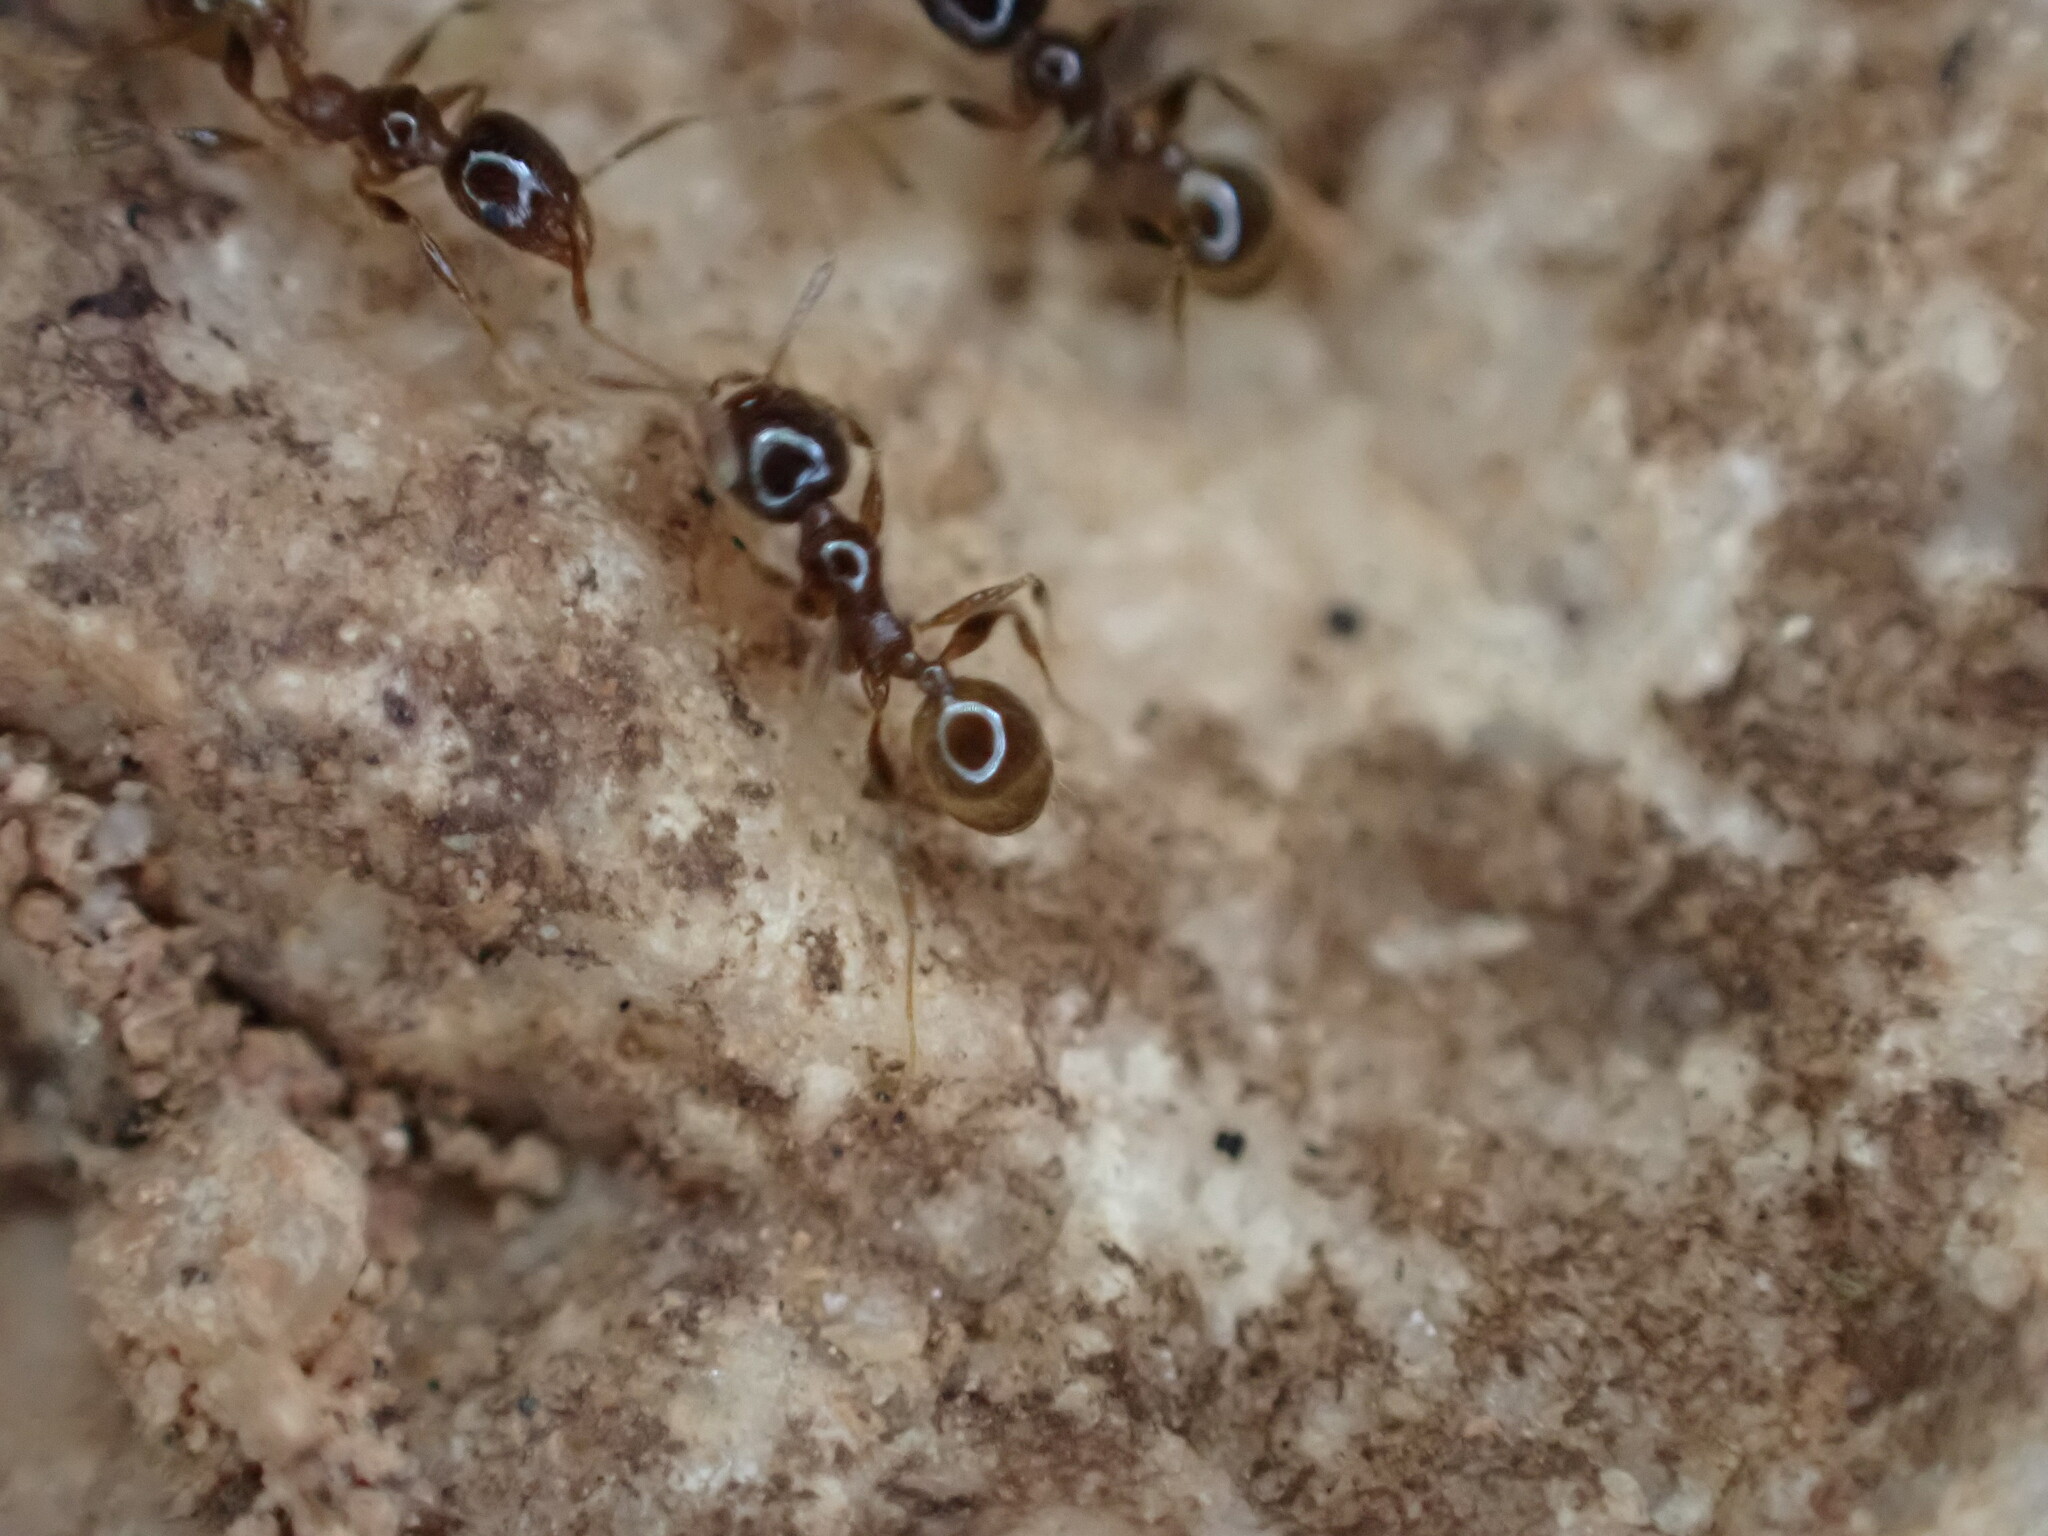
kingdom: Animalia
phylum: Arthropoda
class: Insecta
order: Hymenoptera
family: Formicidae
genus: Pheidole
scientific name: Pheidole pallidula
